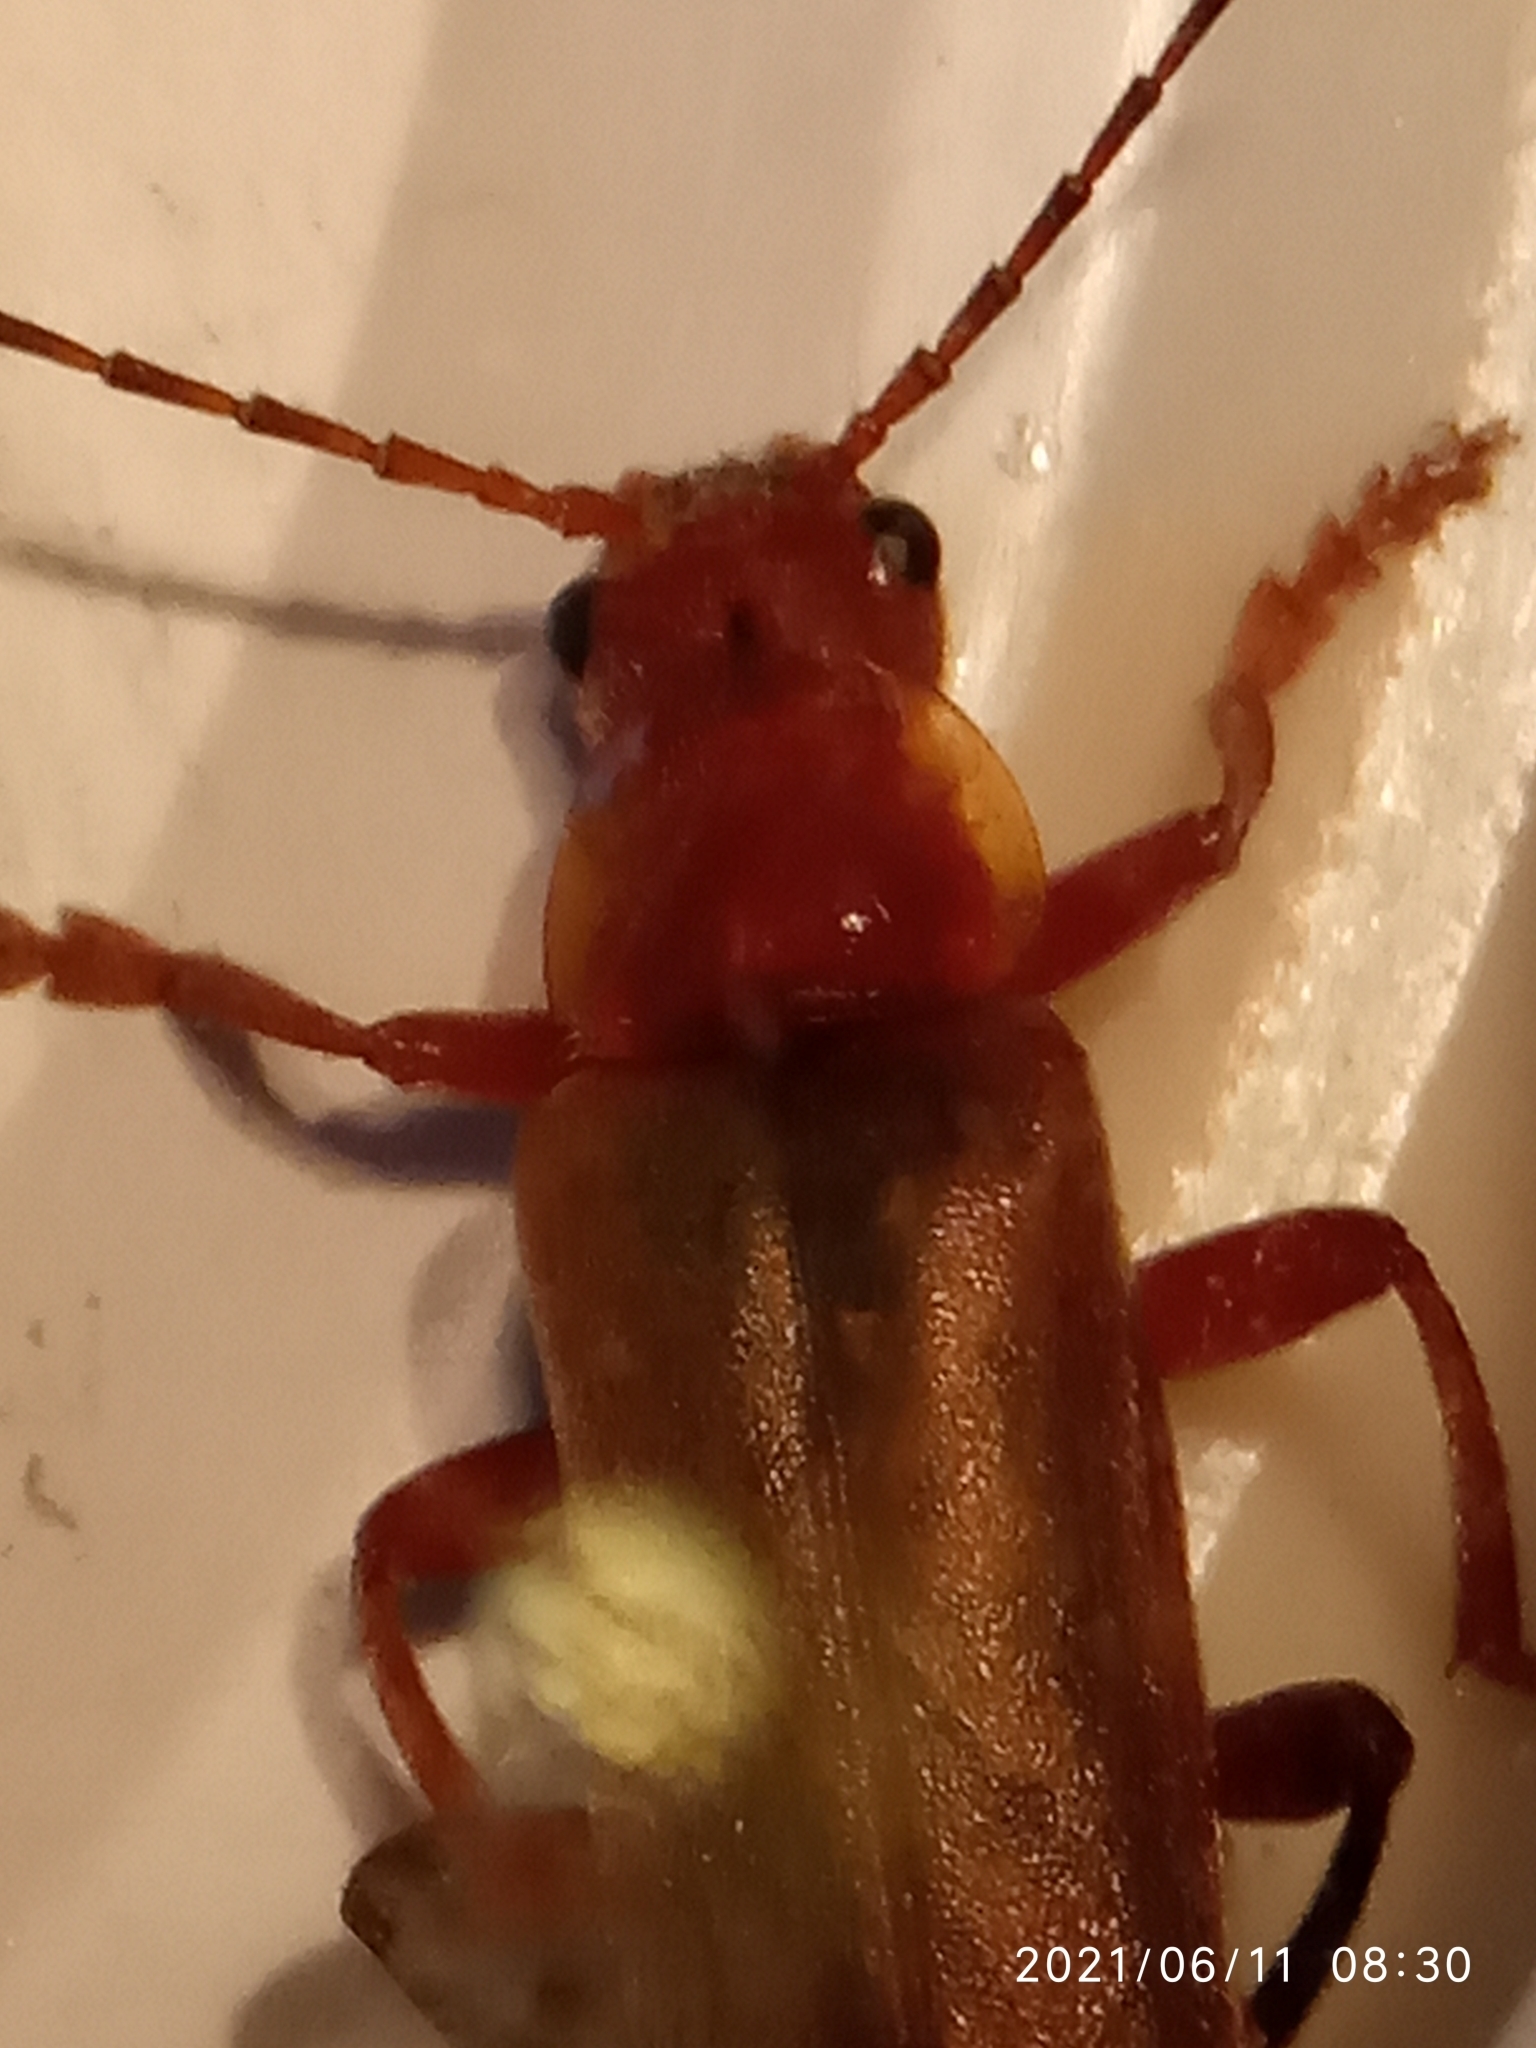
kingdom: Animalia
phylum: Arthropoda
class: Insecta
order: Coleoptera
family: Cantharidae
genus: Cantharis
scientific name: Cantharis livida
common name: Livid soldier beetle
